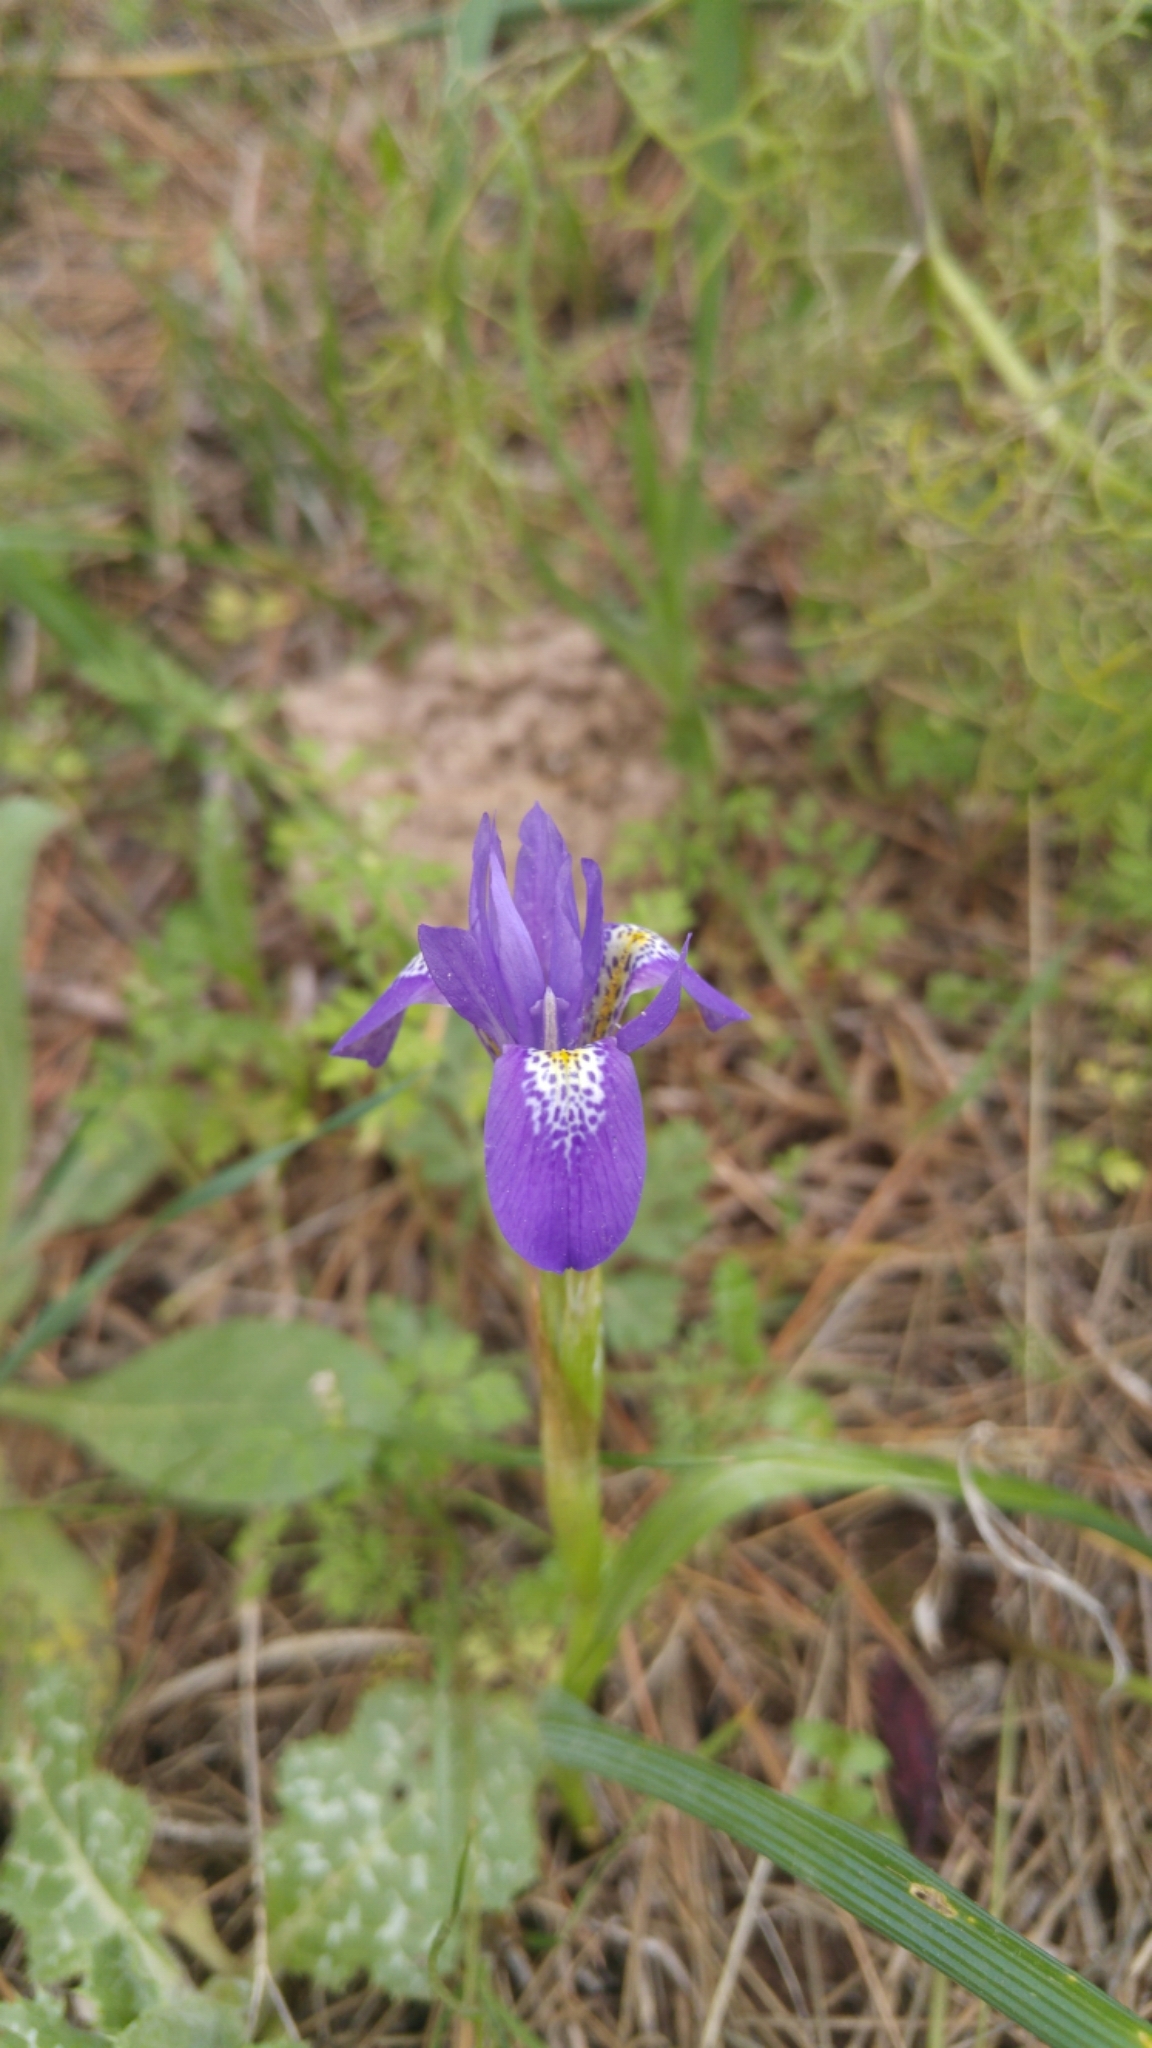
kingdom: Plantae
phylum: Tracheophyta
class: Liliopsida
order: Asparagales
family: Iridaceae
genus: Moraea
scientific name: Moraea sisyrinchium
